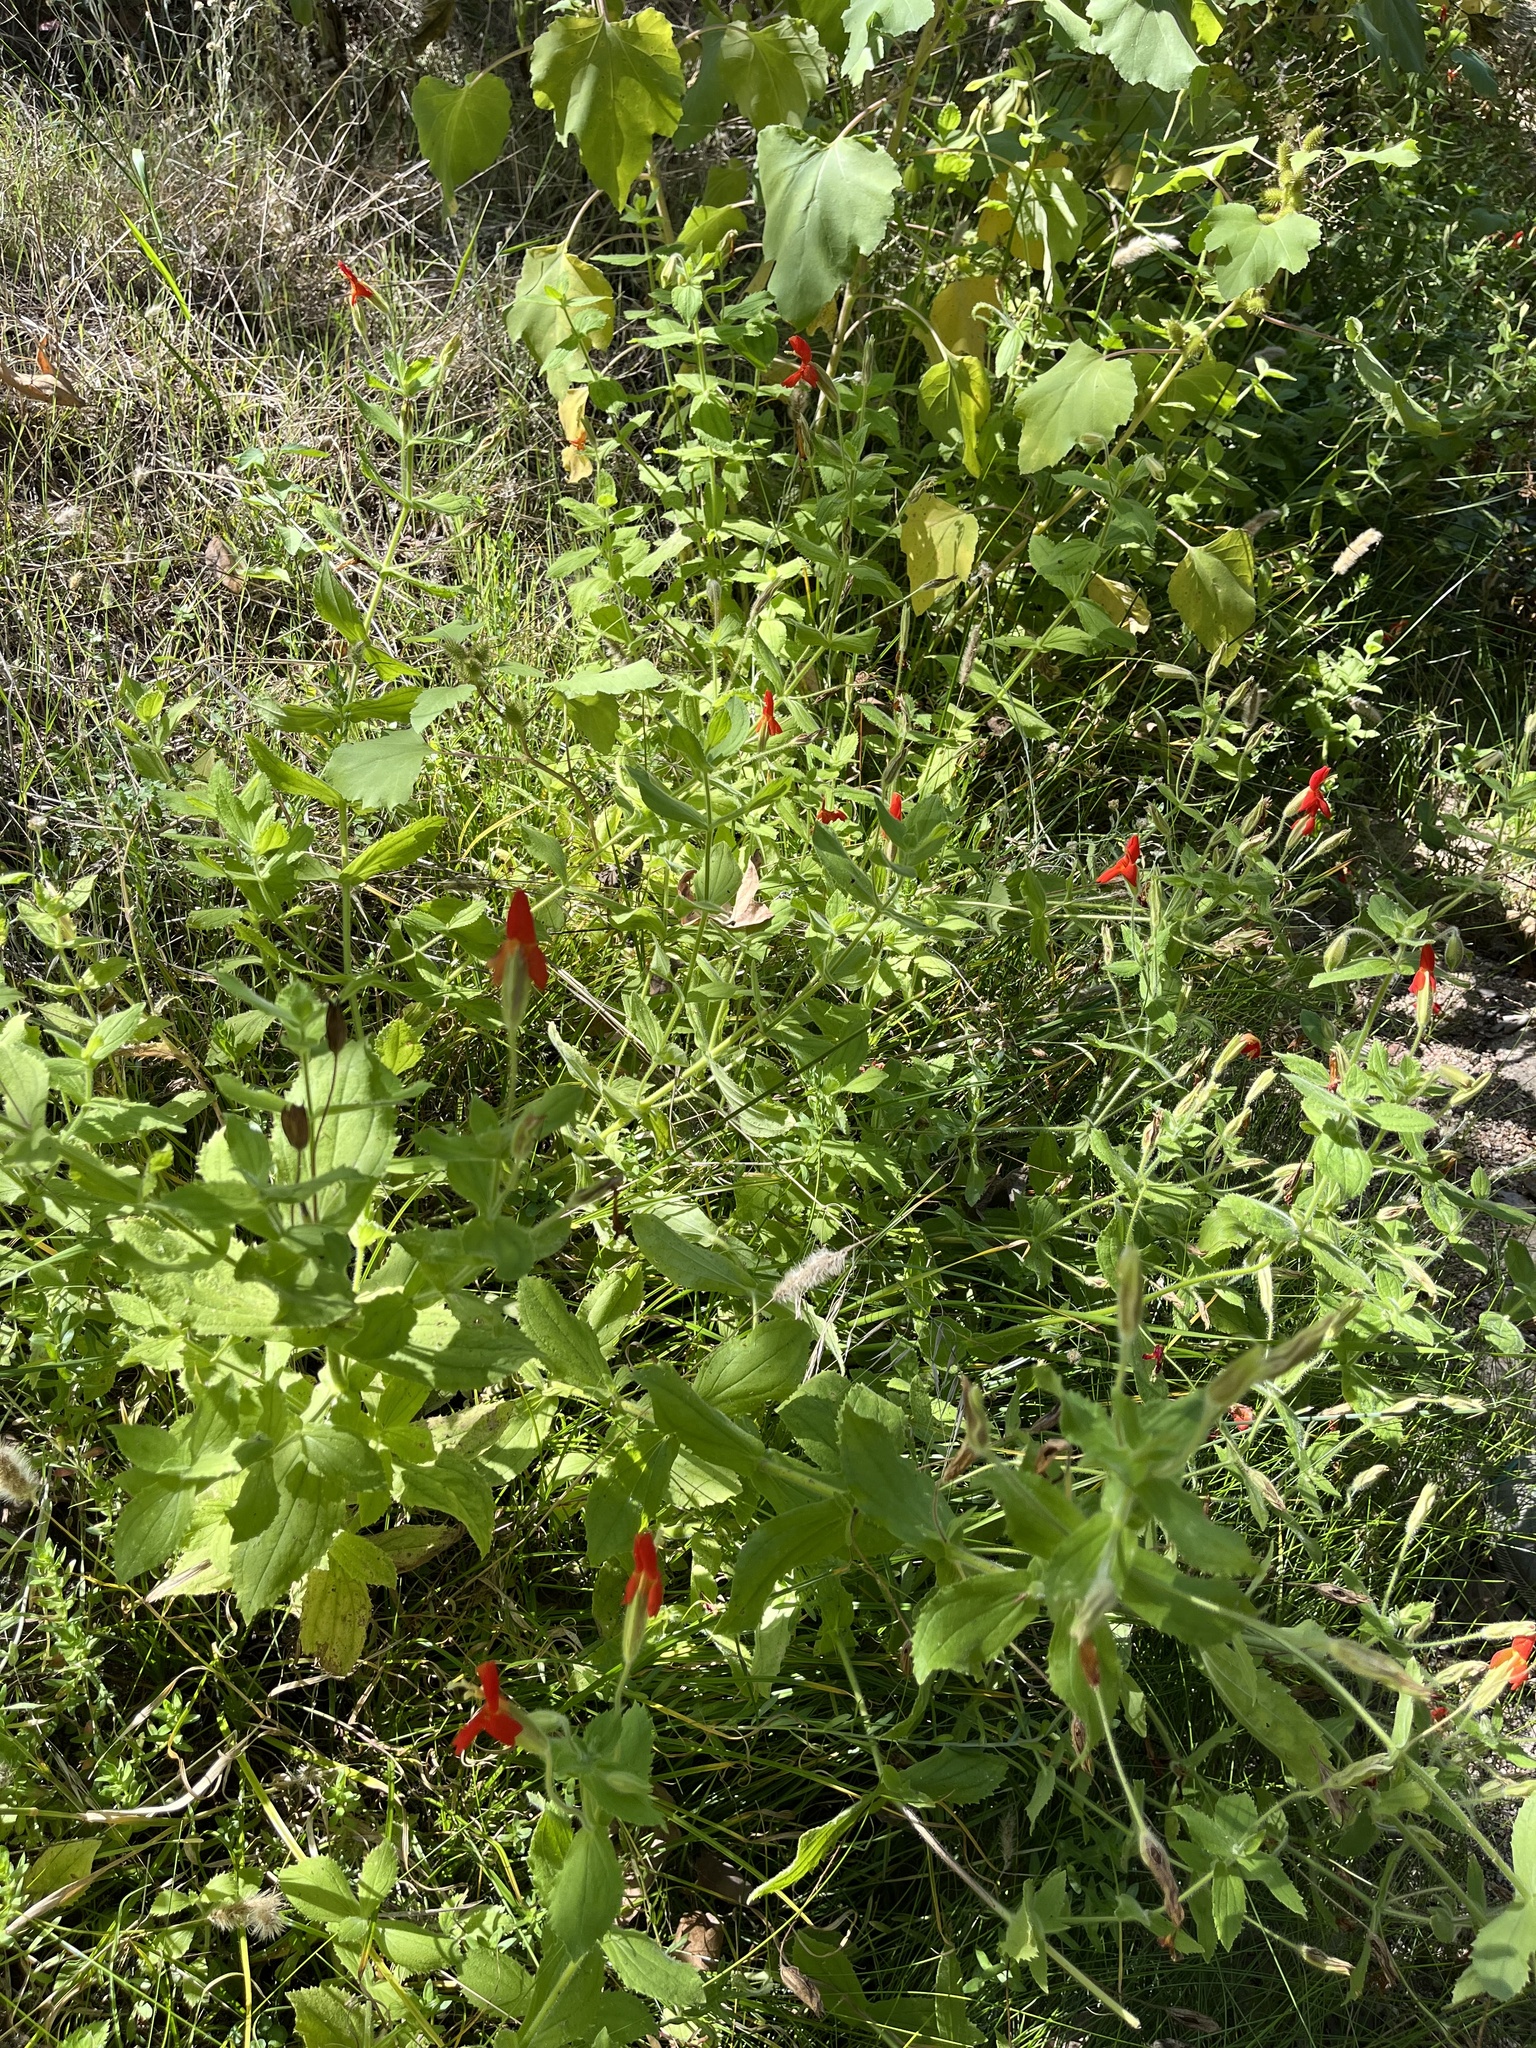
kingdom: Plantae
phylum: Tracheophyta
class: Magnoliopsida
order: Lamiales
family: Phrymaceae
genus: Erythranthe
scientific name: Erythranthe cardinalis
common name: Scarlet monkey-flower
